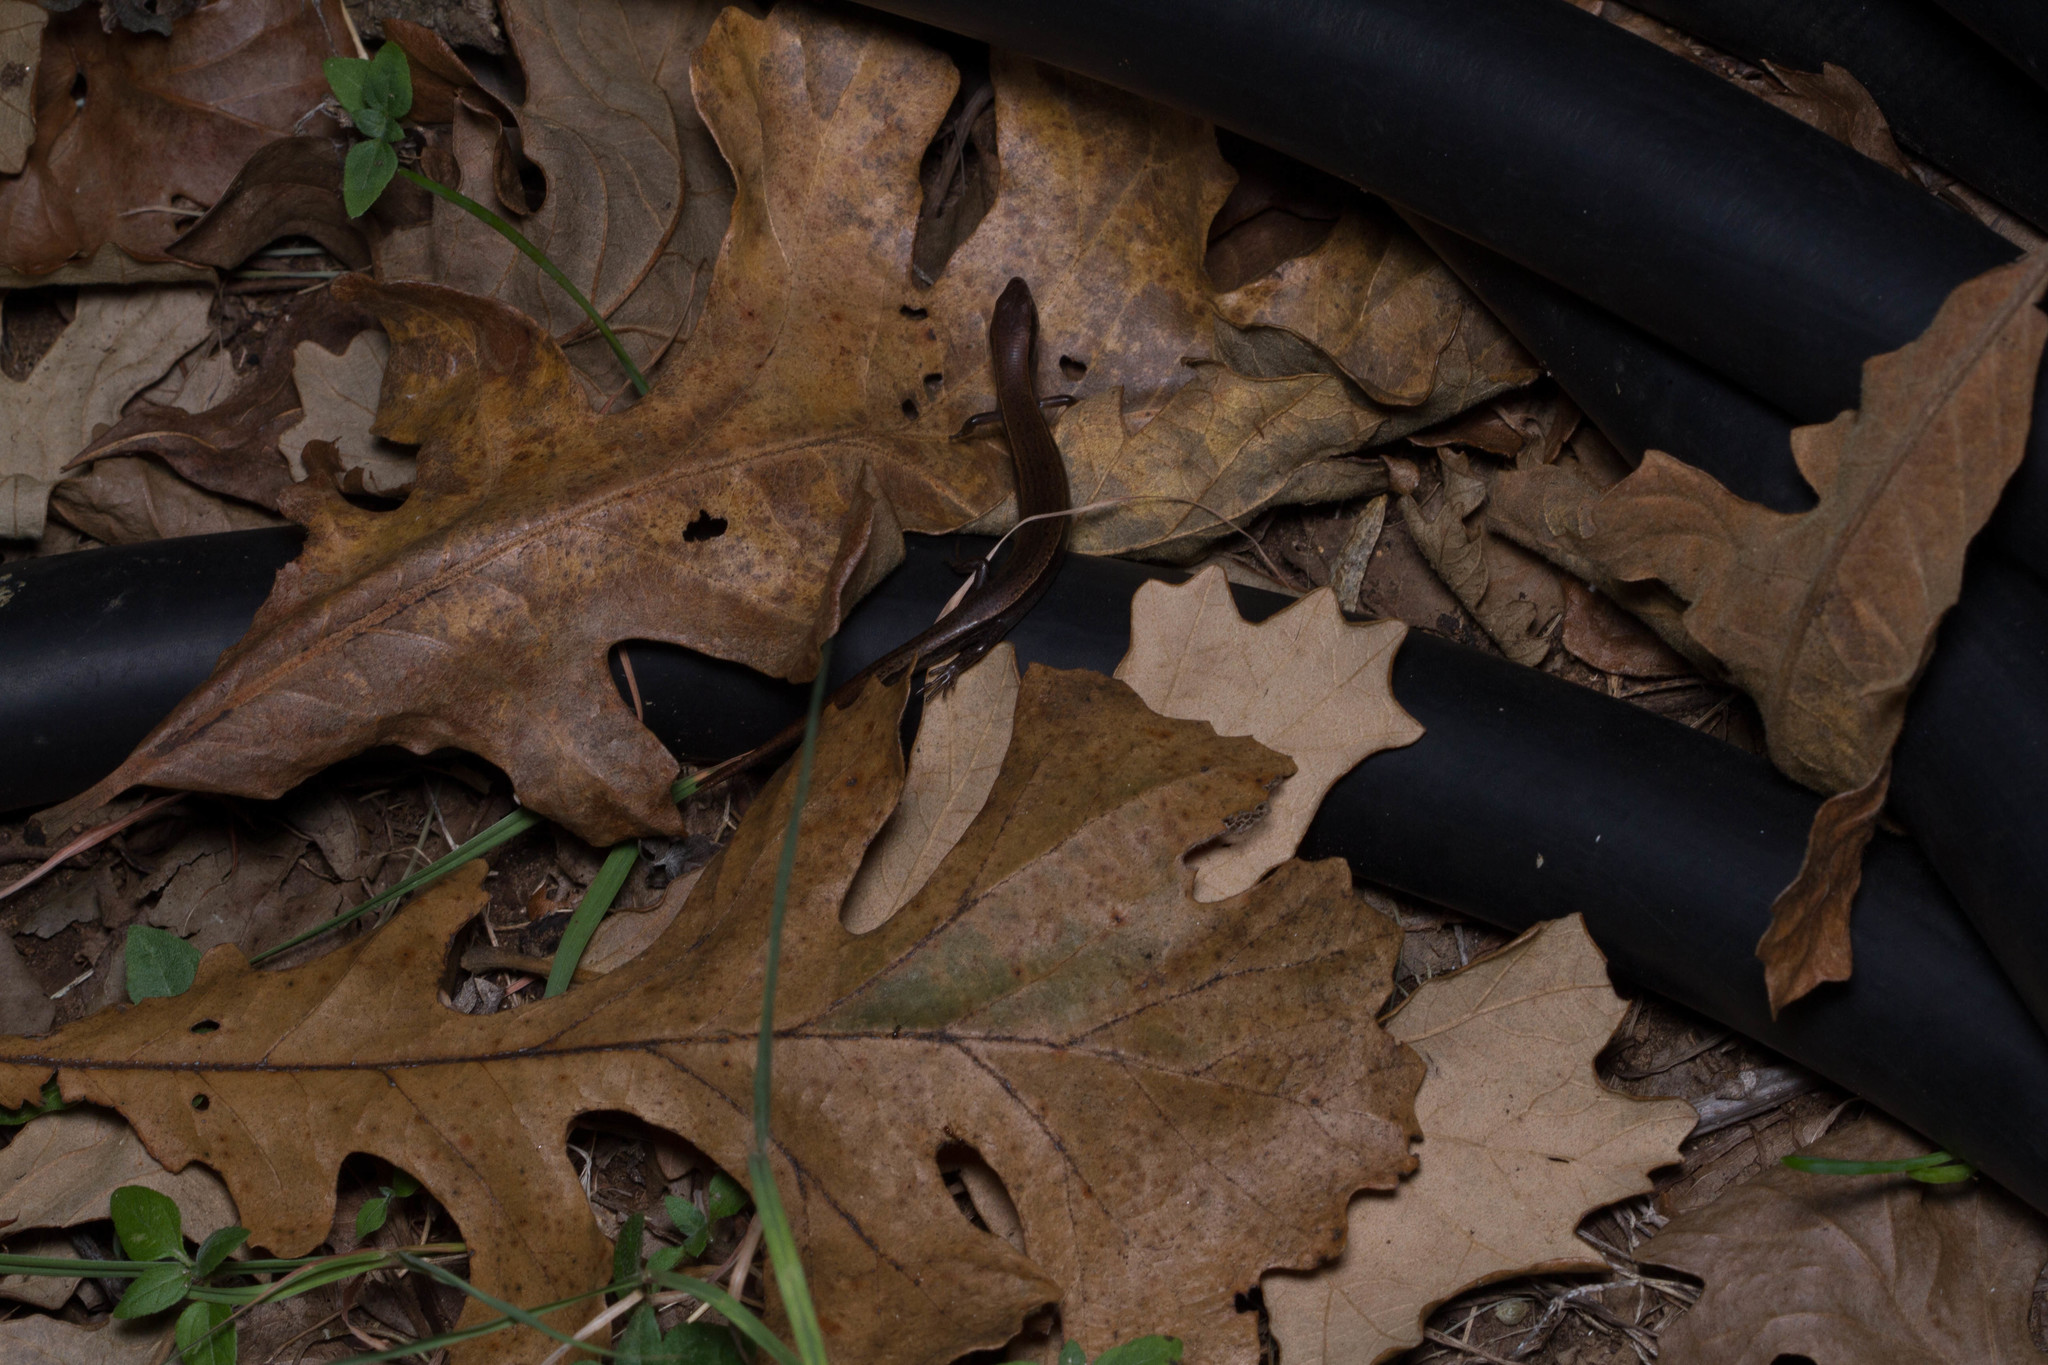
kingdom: Animalia
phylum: Chordata
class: Squamata
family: Scincidae
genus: Scincella
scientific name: Scincella lateralis
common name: Ground skink
